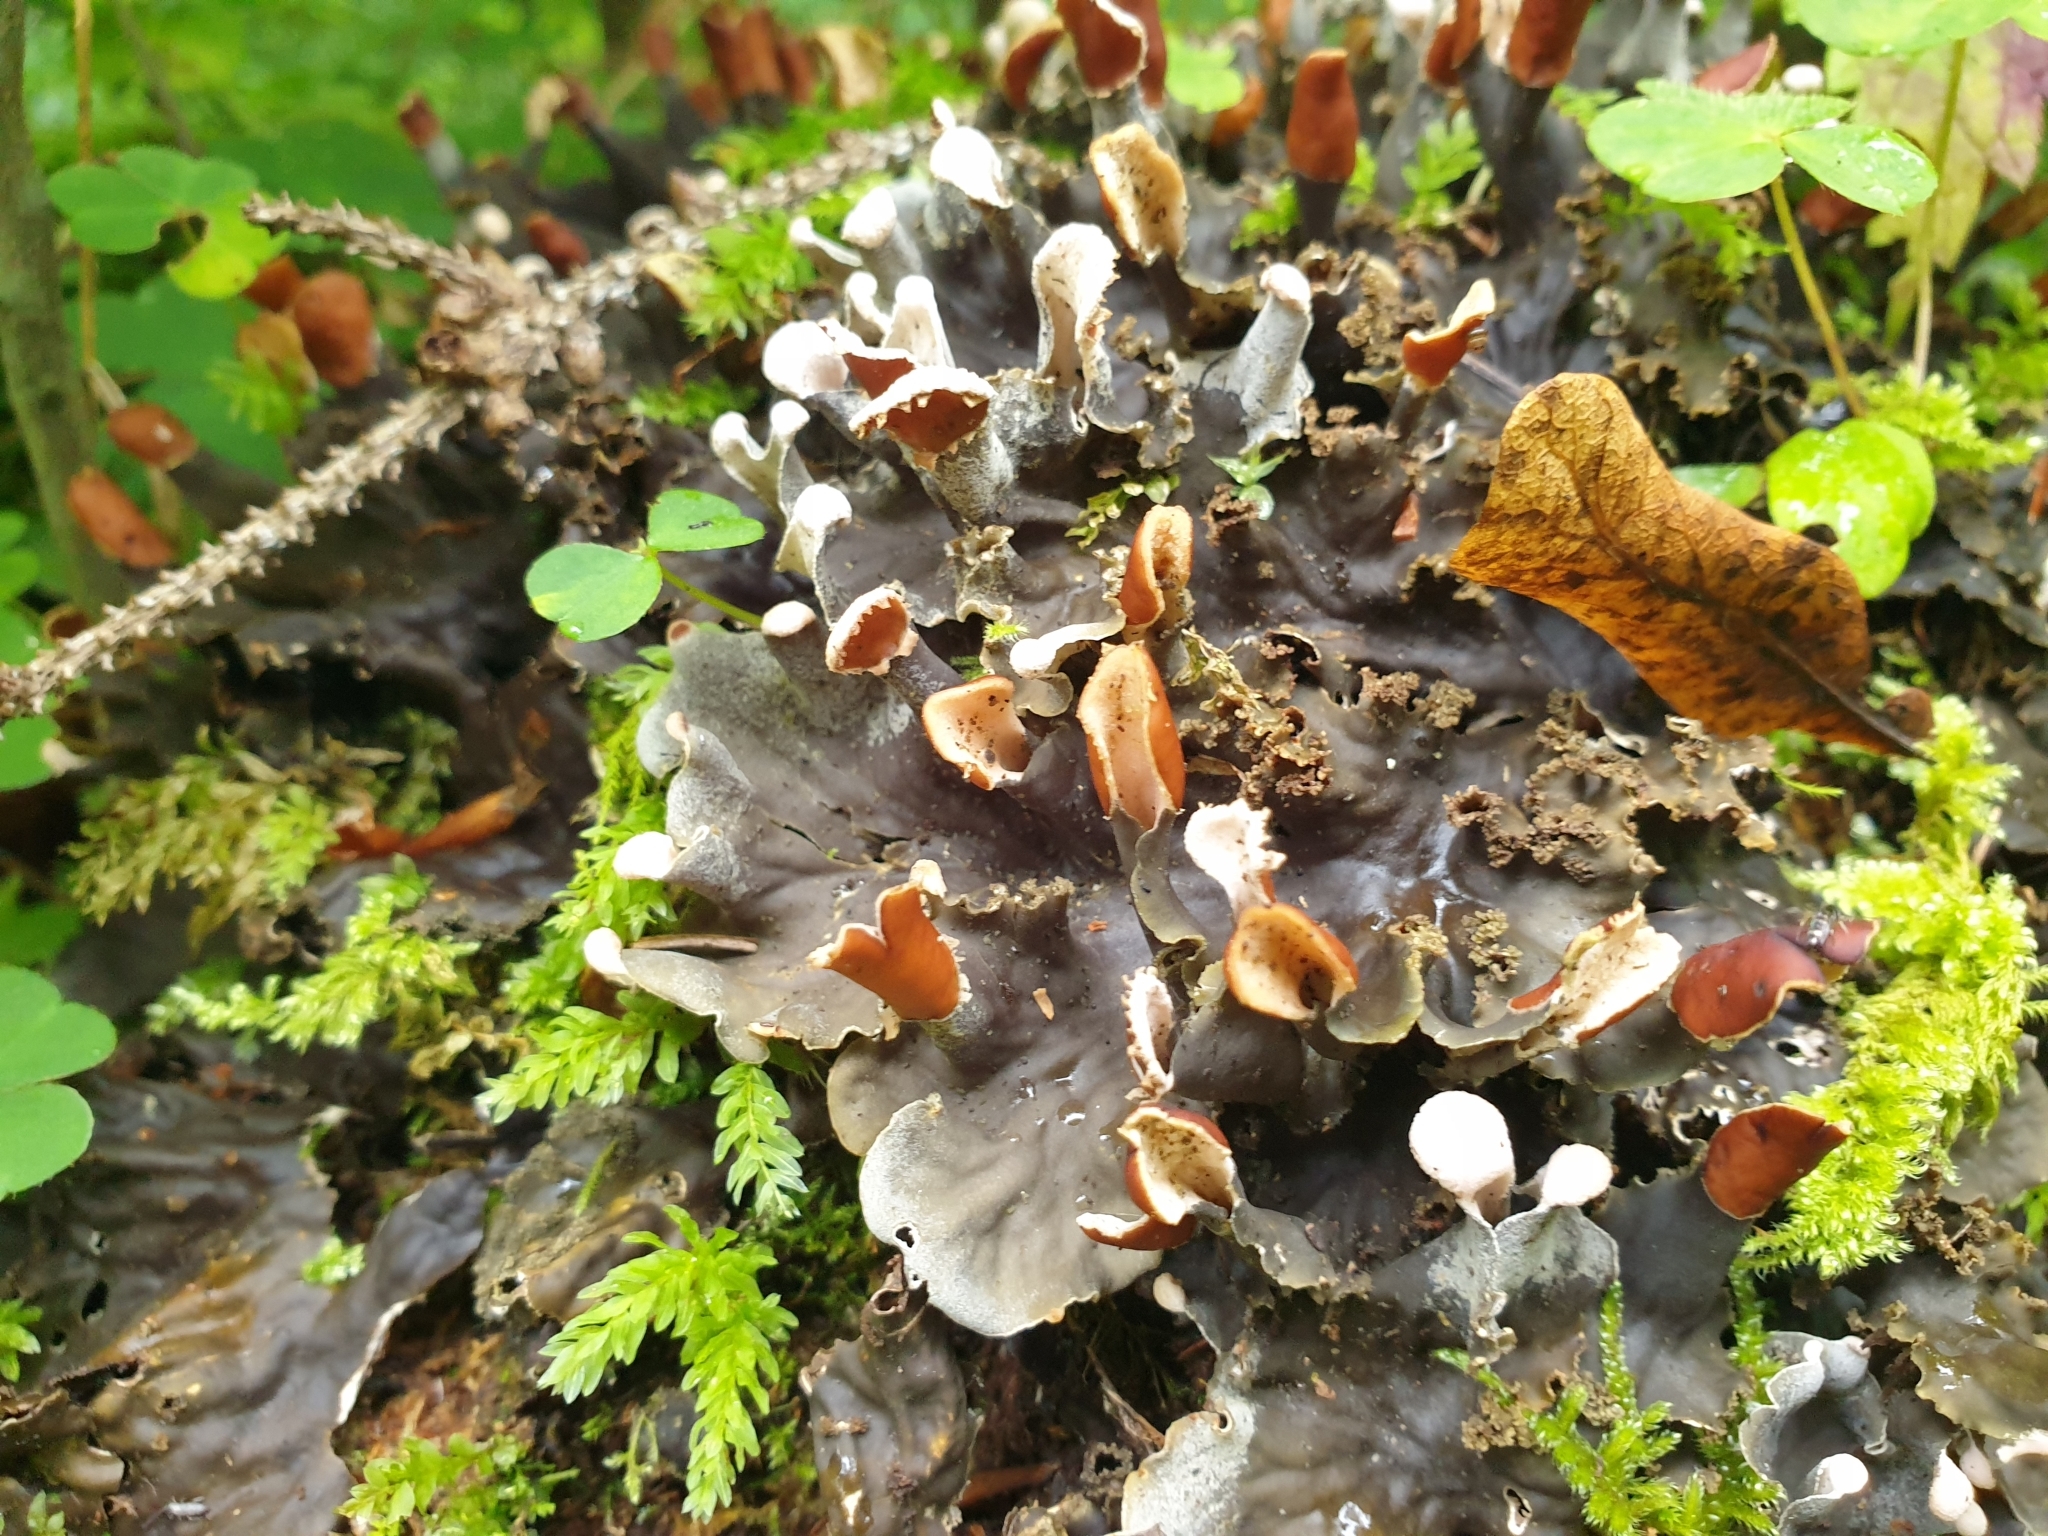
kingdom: Fungi
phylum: Ascomycota
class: Lecanoromycetes
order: Peltigerales
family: Peltigeraceae
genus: Peltigera
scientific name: Peltigera praetextata
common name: Scaly dog-lichen
